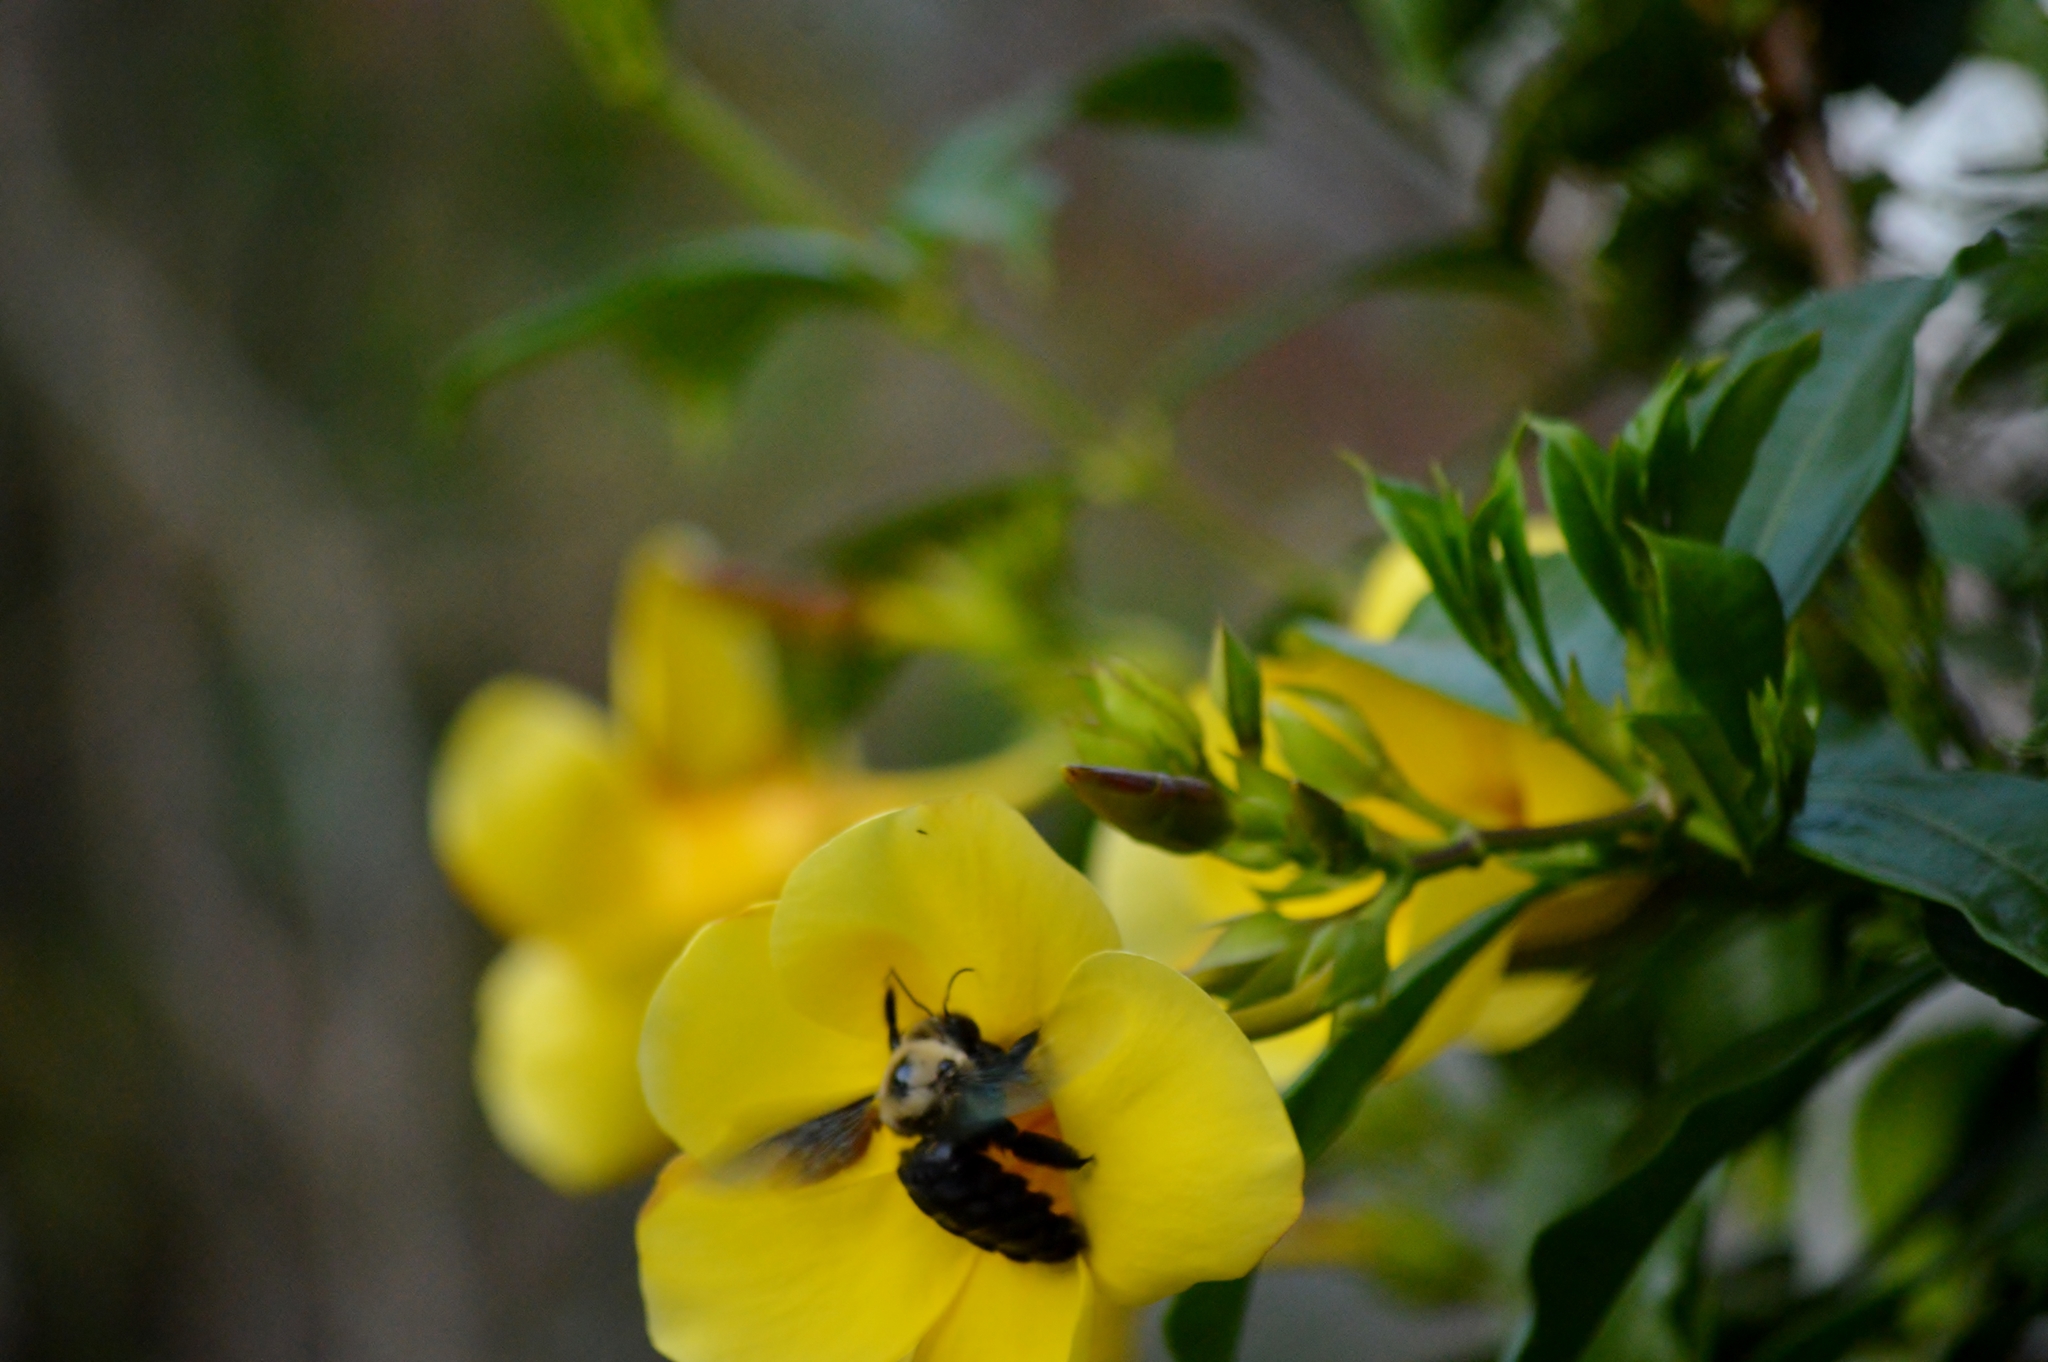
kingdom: Animalia
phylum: Arthropoda
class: Insecta
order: Hymenoptera
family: Apidae
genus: Xylocopa
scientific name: Xylocopa grisescens
